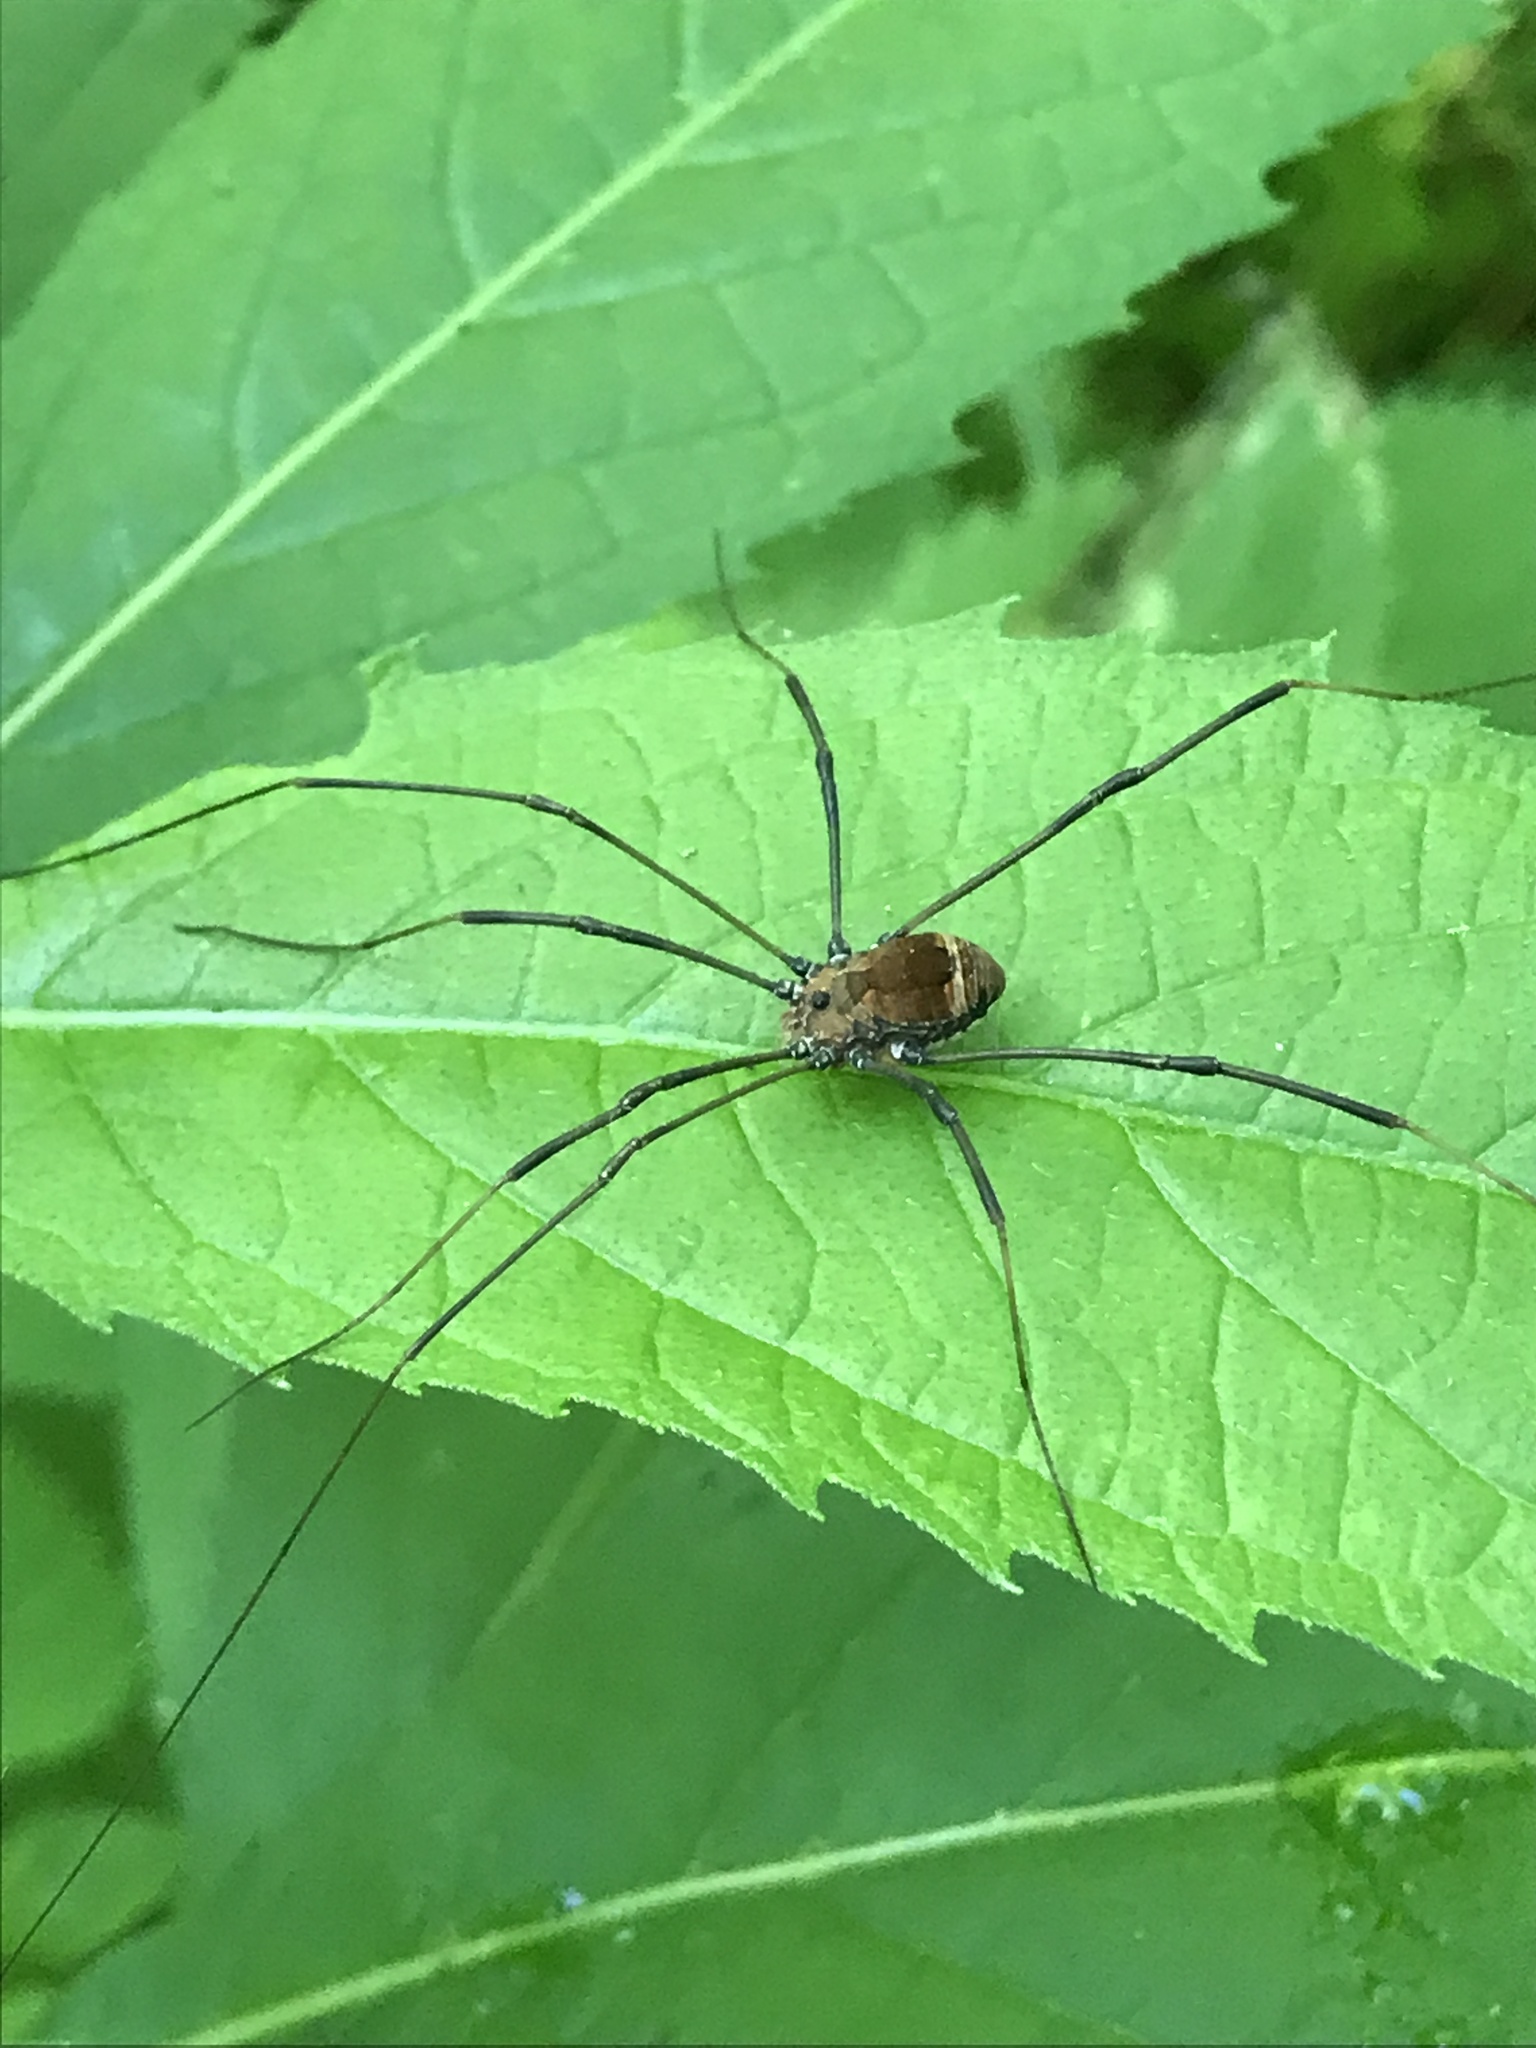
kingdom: Animalia
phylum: Arthropoda
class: Arachnida
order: Opiliones
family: Sclerosomatidae
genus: Leiobunum
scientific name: Leiobunum verrucosum
